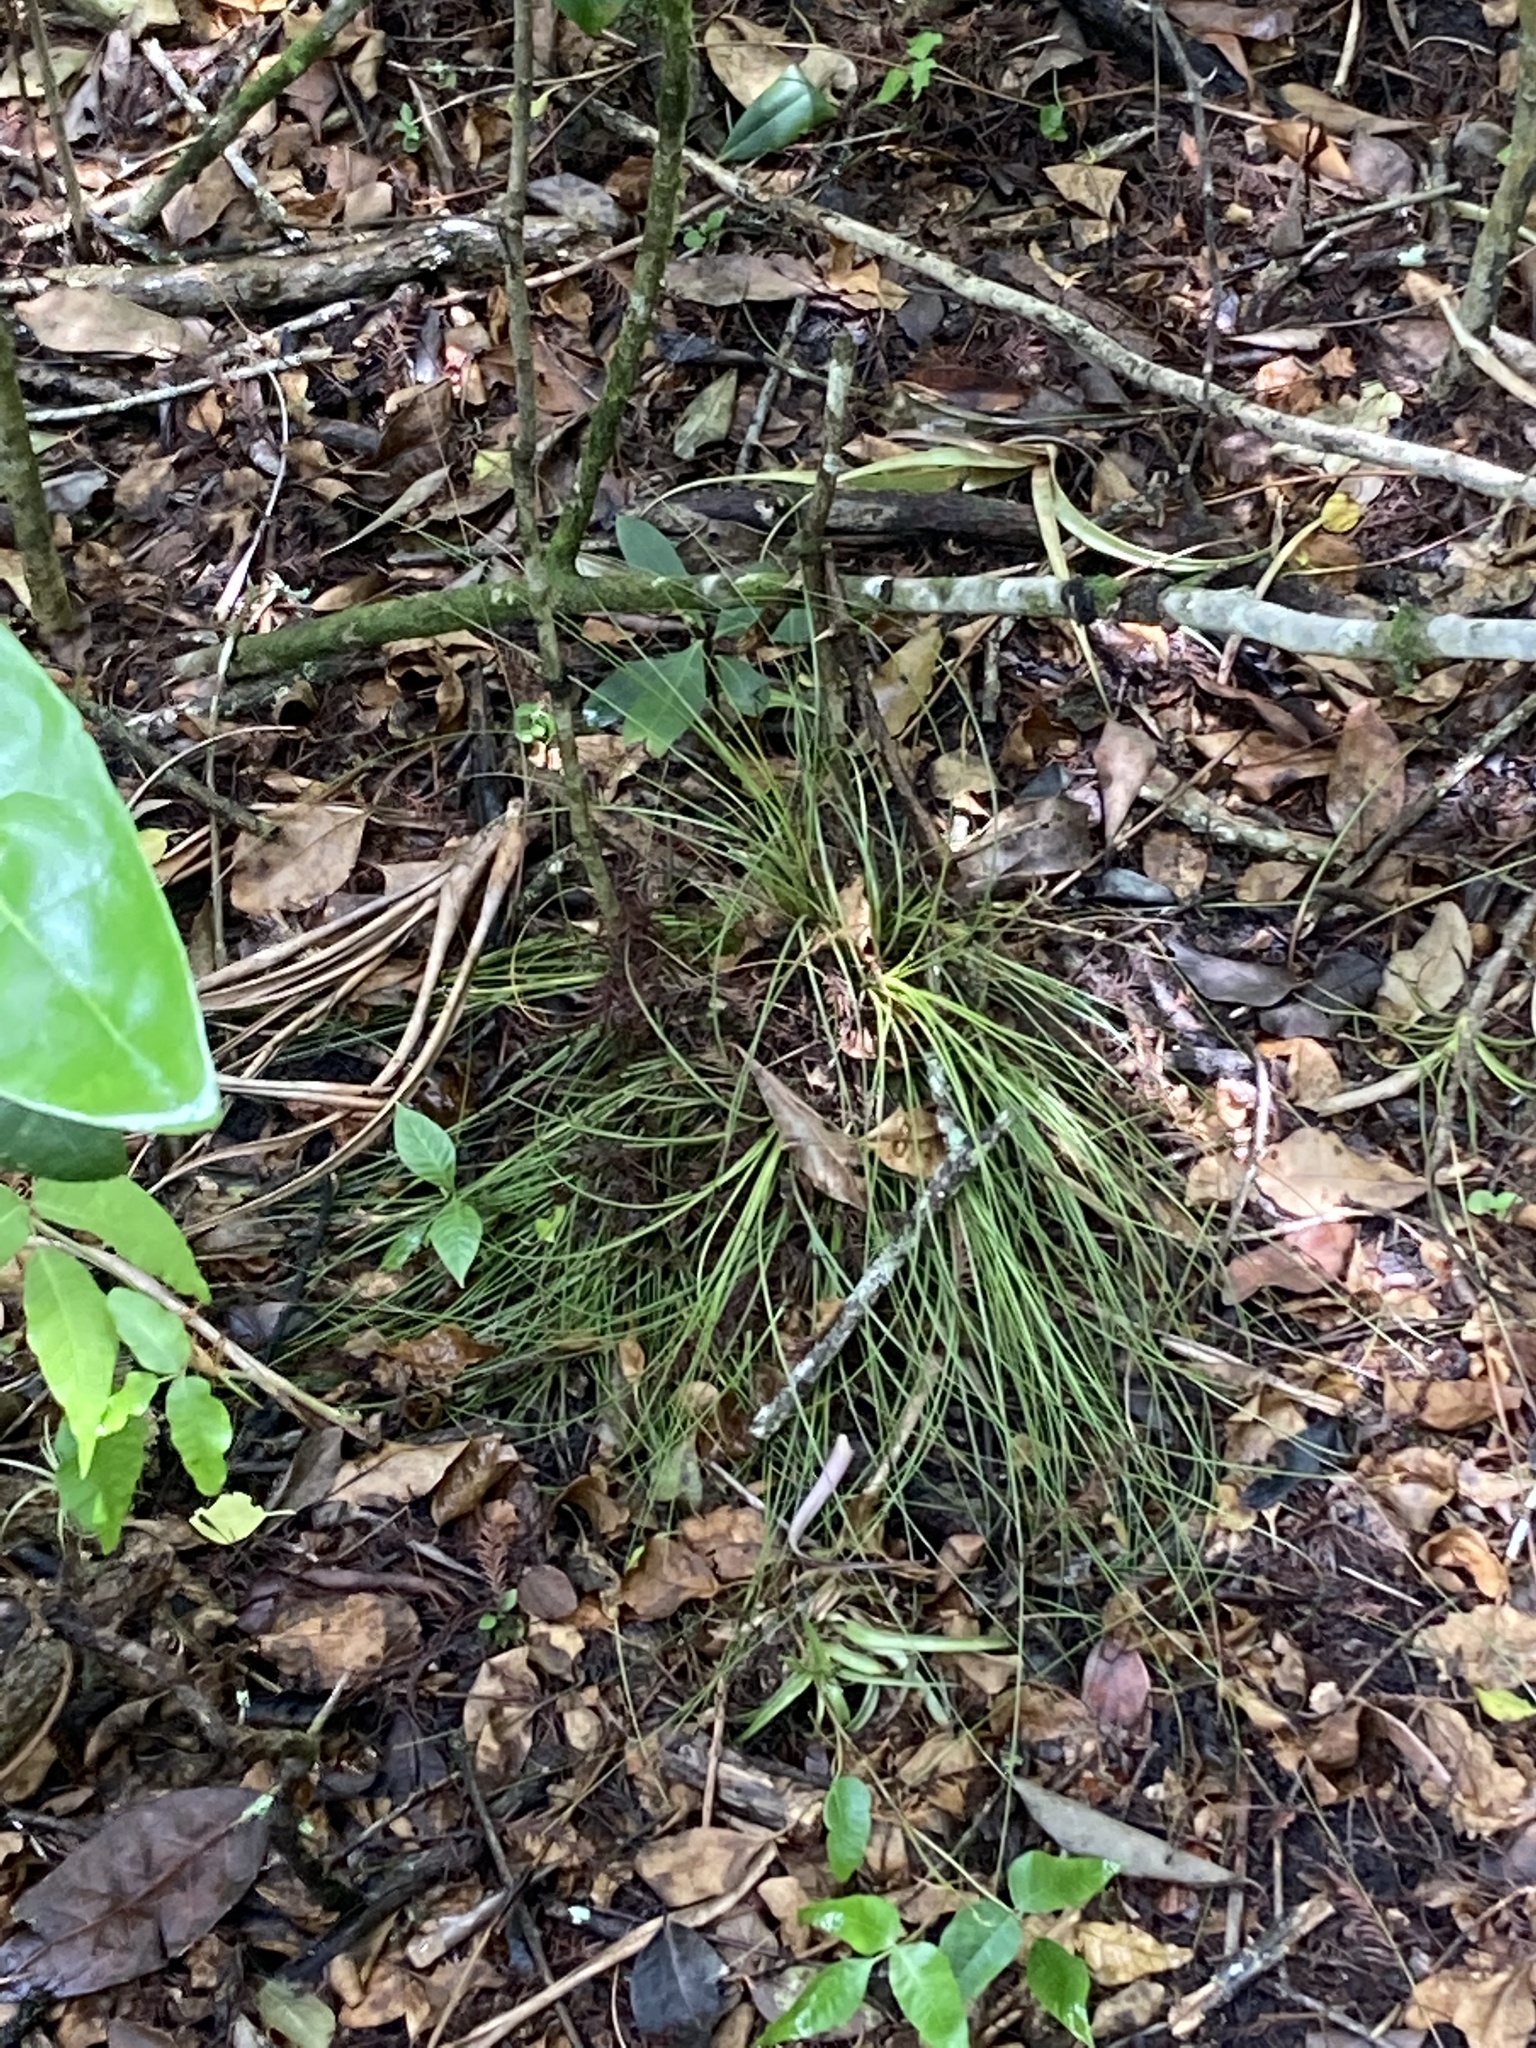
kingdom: Plantae
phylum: Tracheophyta
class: Liliopsida
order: Poales
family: Bromeliaceae
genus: Tillandsia
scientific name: Tillandsia setacea
